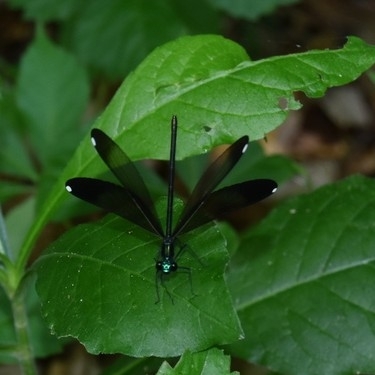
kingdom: Animalia
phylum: Arthropoda
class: Insecta
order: Odonata
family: Calopterygidae
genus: Calopteryx
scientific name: Calopteryx maculata
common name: Ebony jewelwing
